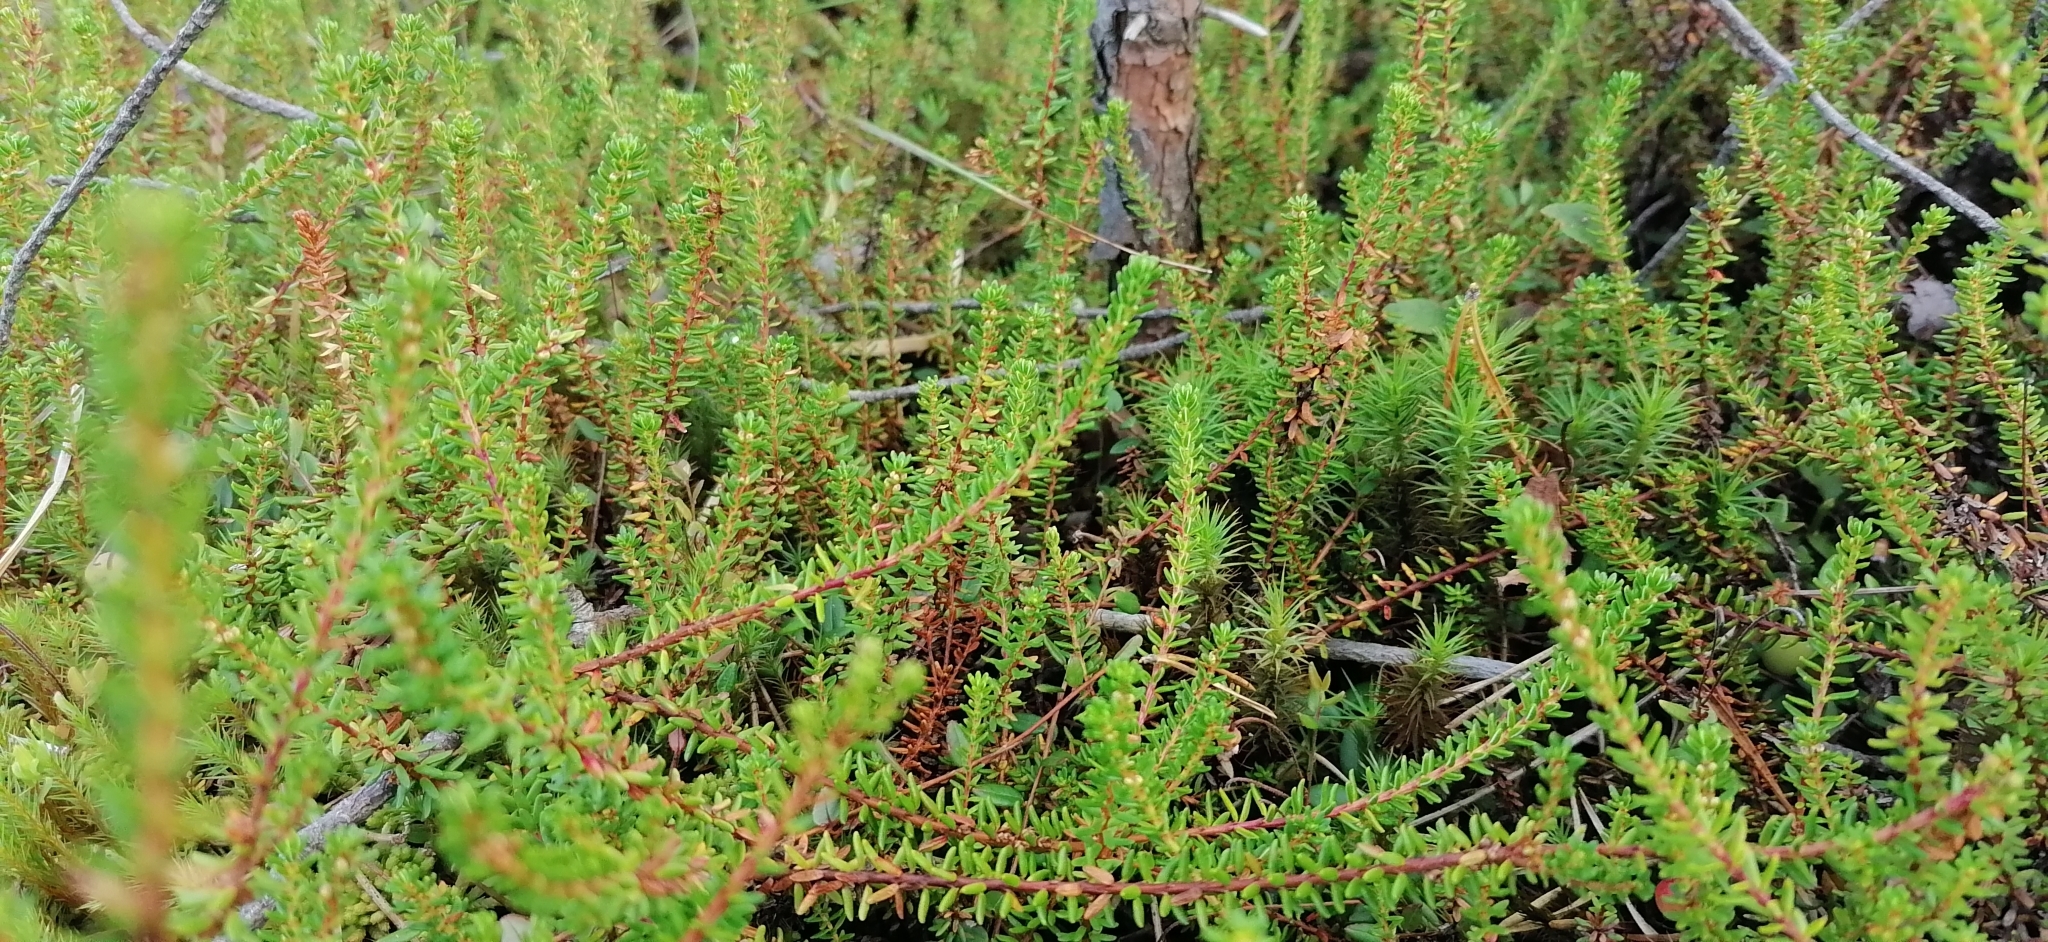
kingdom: Plantae
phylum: Tracheophyta
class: Magnoliopsida
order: Ericales
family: Ericaceae
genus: Empetrum
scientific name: Empetrum nigrum
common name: Black crowberry
